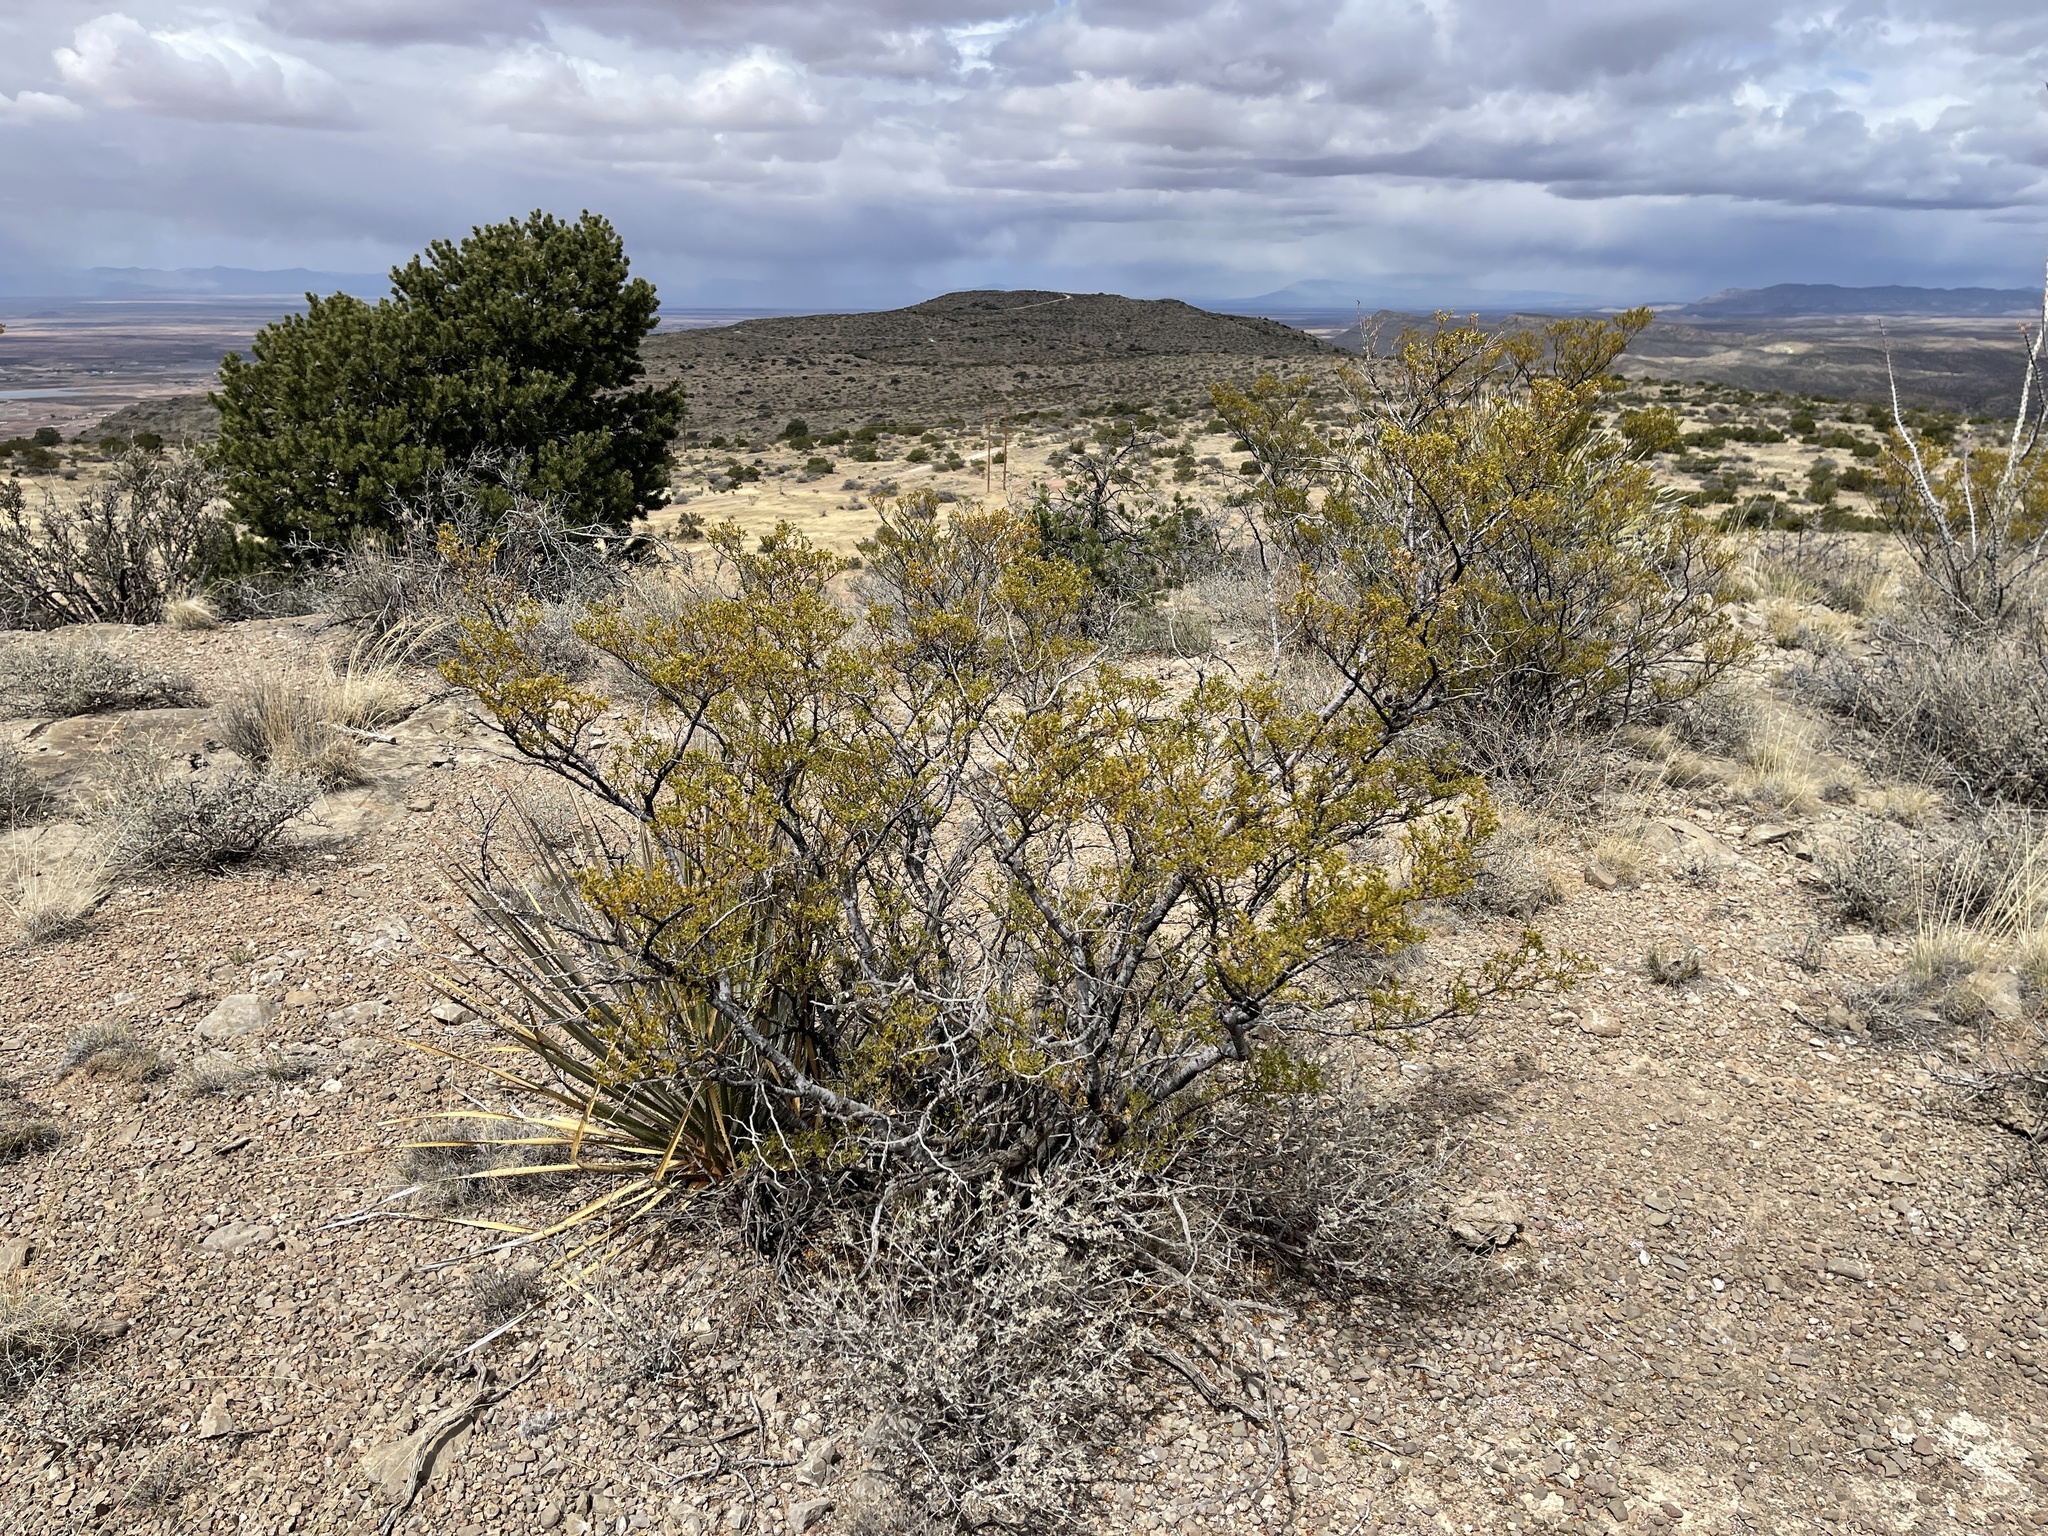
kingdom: Plantae
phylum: Tracheophyta
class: Magnoliopsida
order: Zygophyllales
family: Zygophyllaceae
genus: Larrea
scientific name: Larrea tridentata
